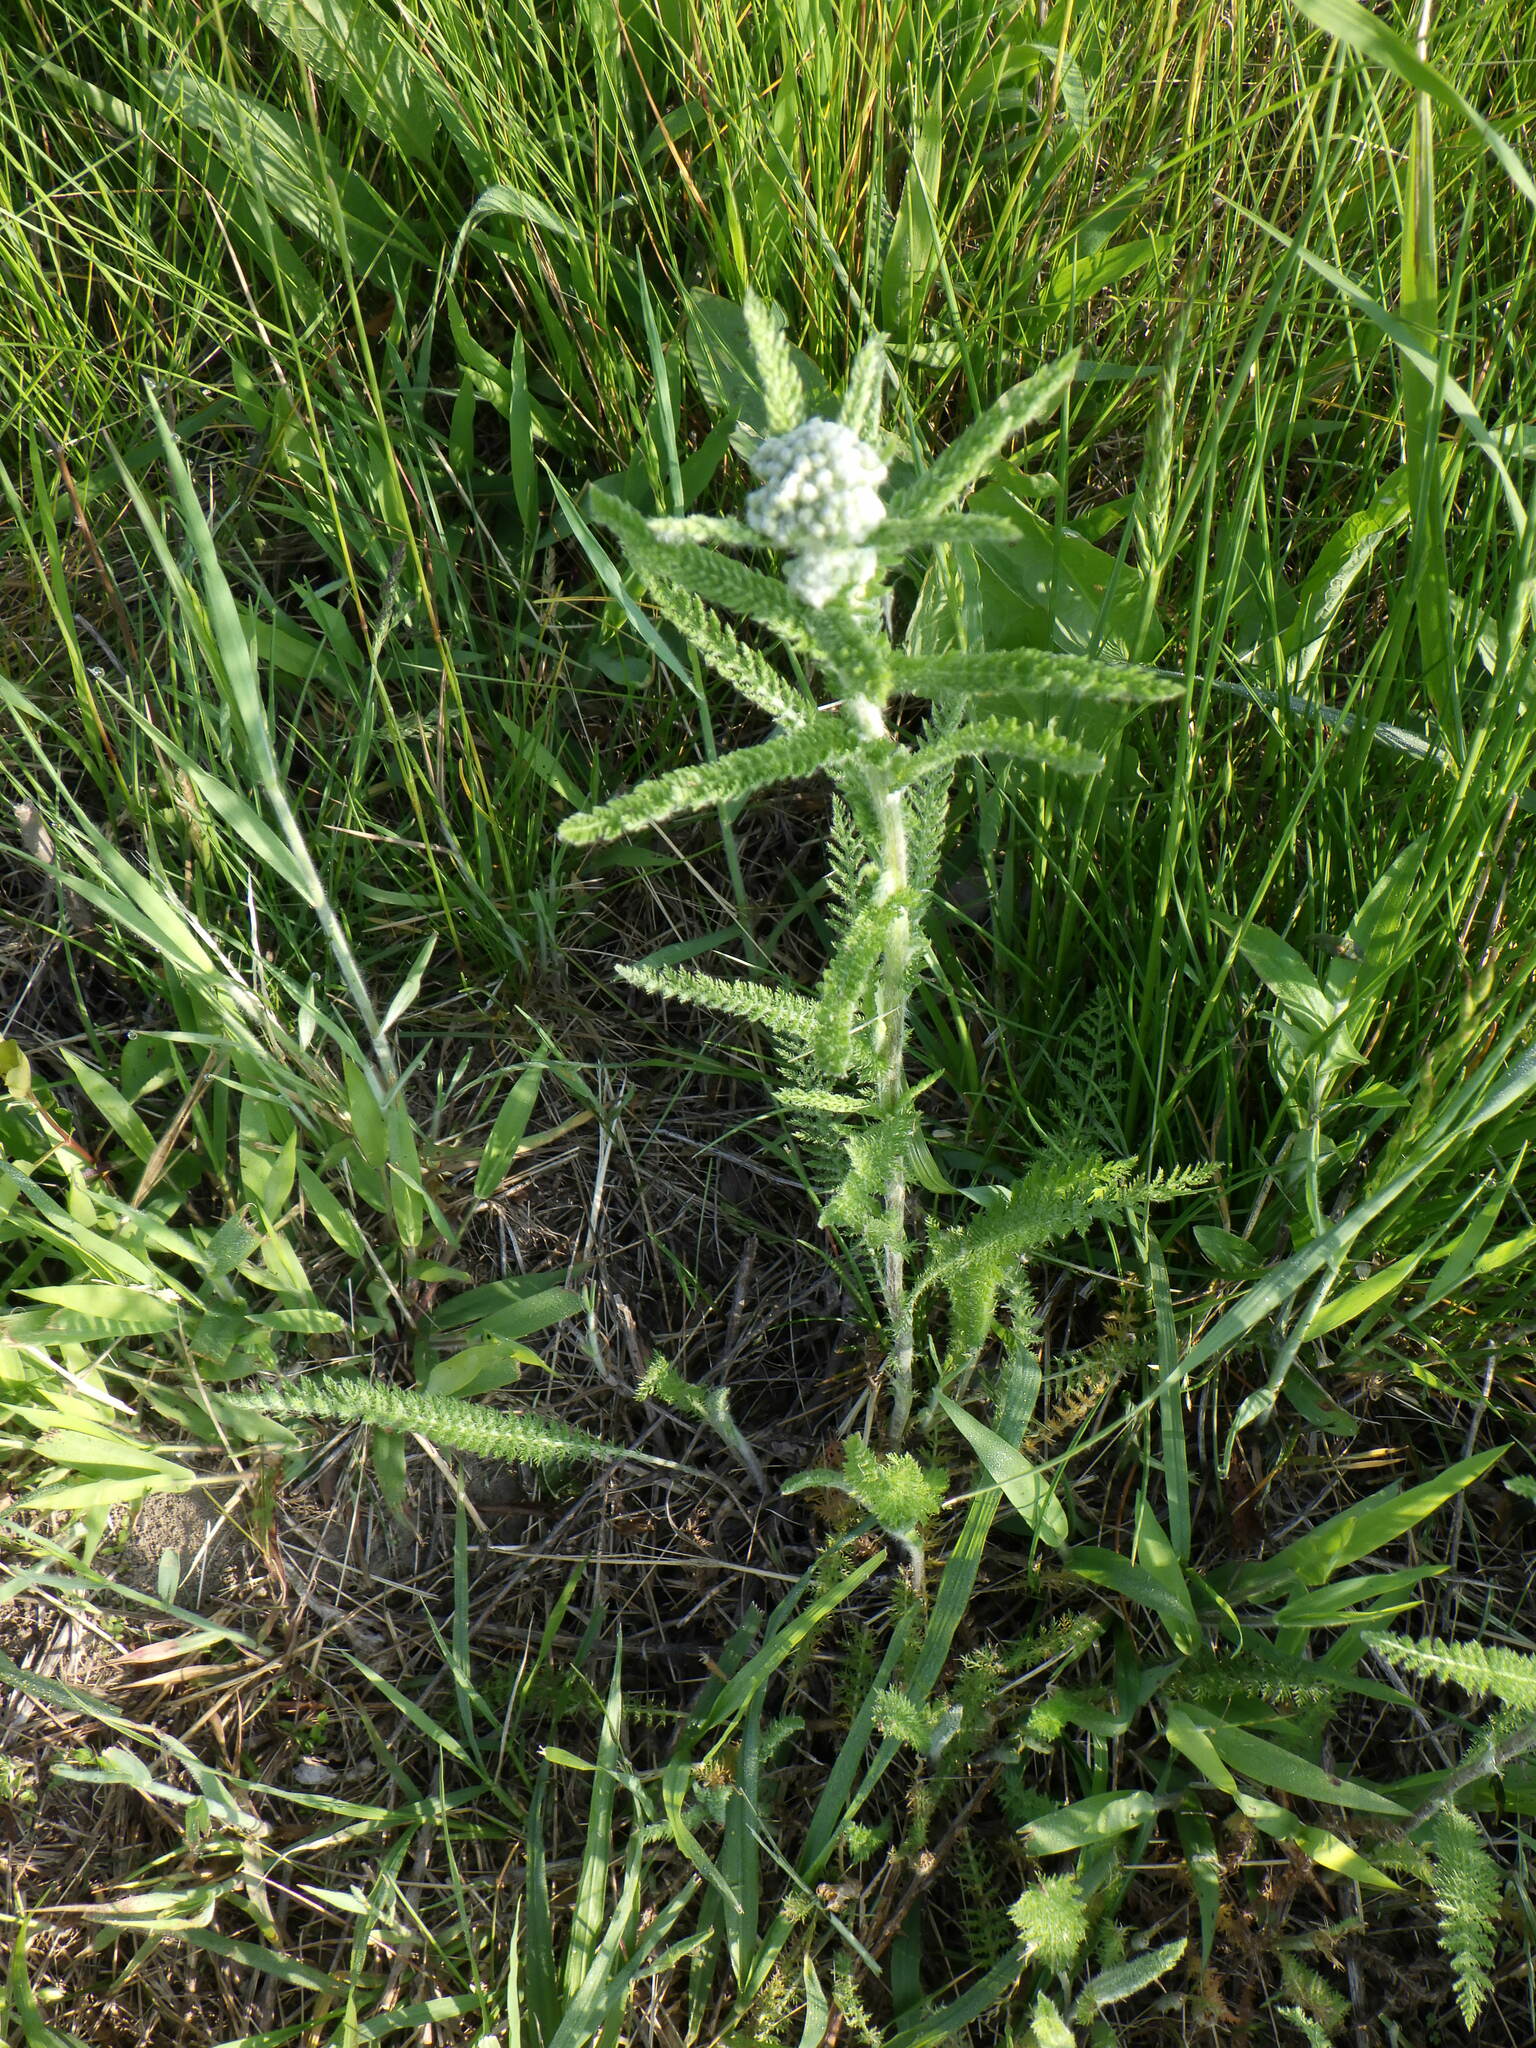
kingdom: Plantae
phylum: Tracheophyta
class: Magnoliopsida
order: Asterales
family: Asteraceae
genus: Achillea
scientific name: Achillea millefolium
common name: Yarrow
